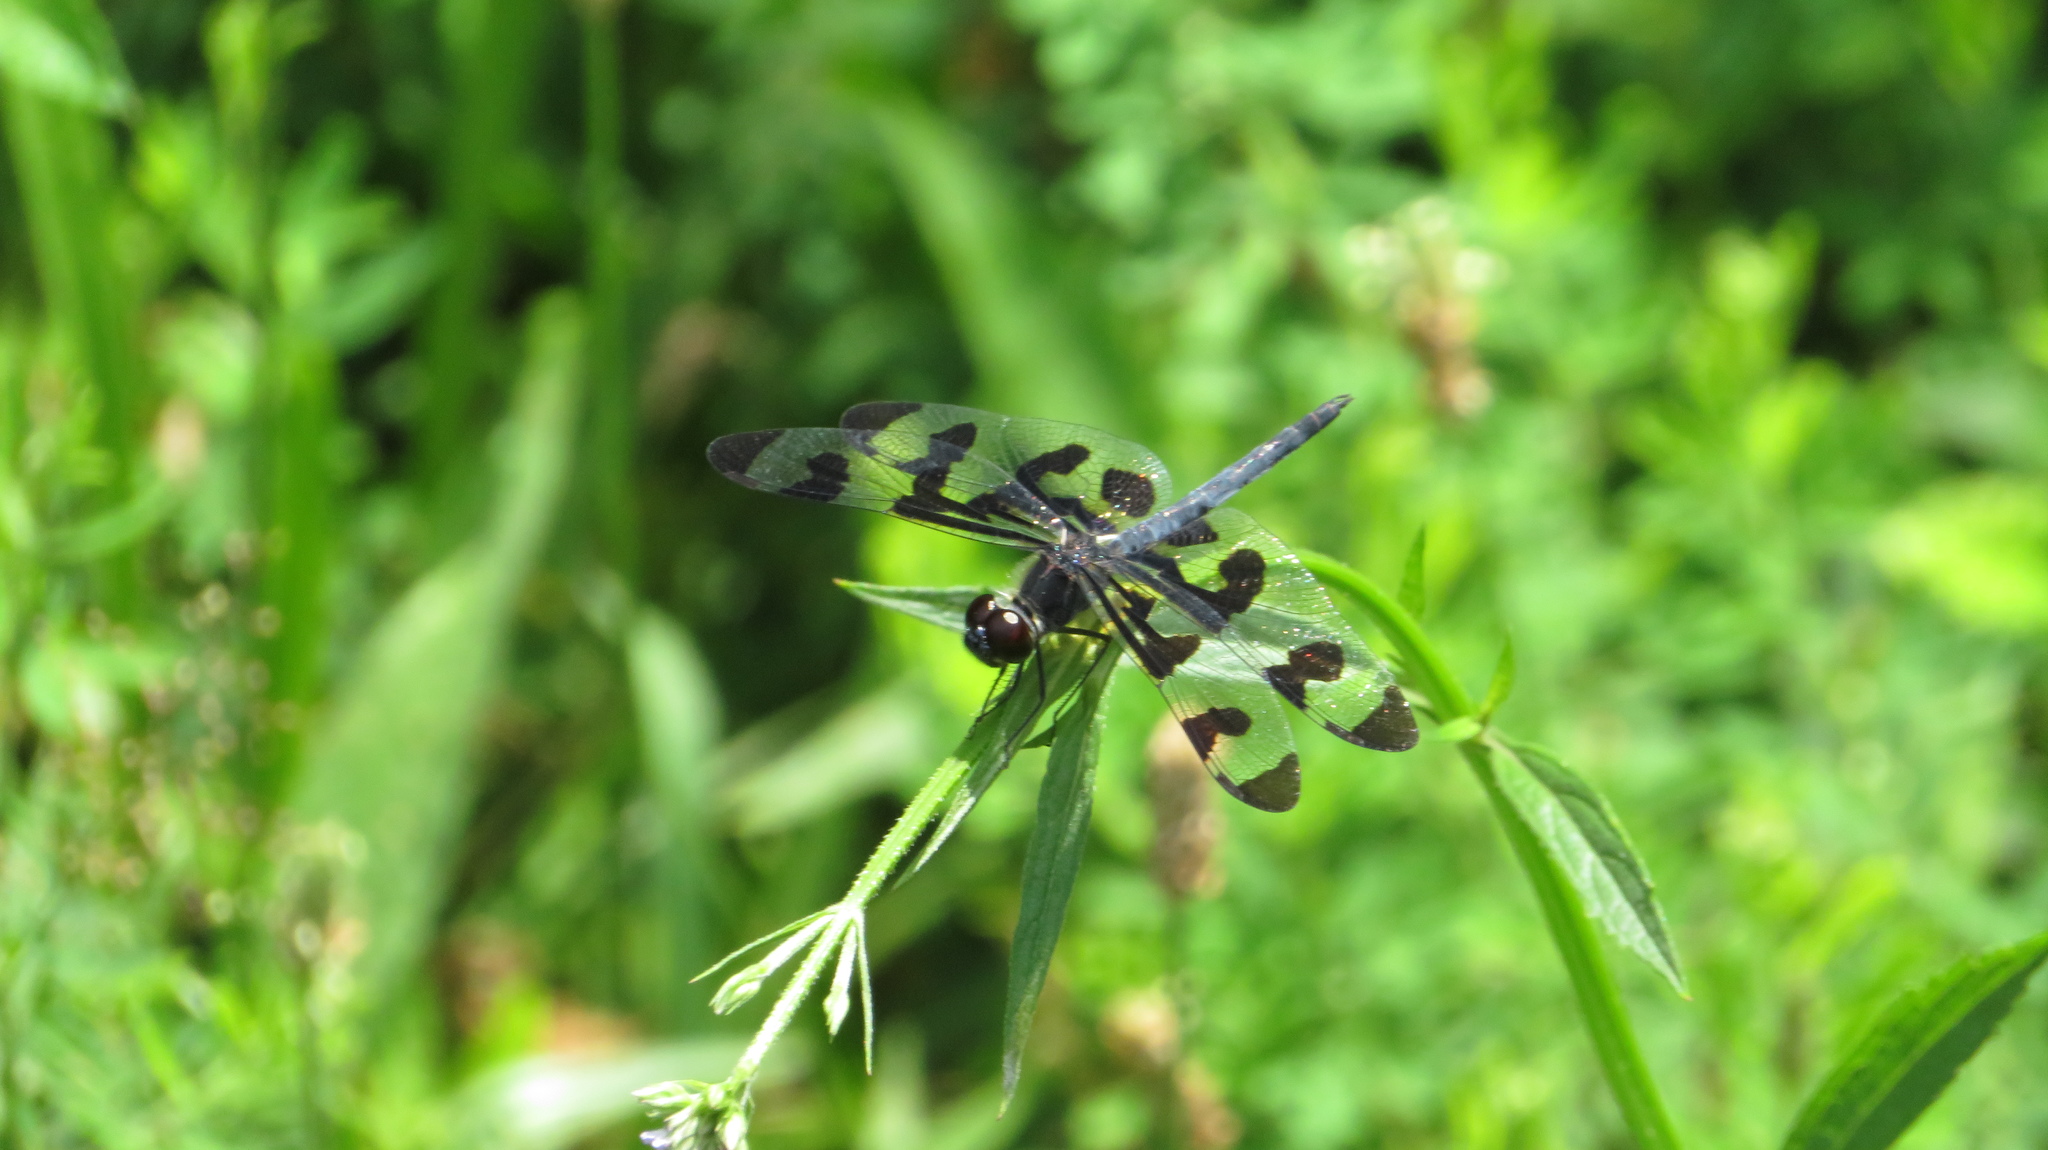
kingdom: Animalia
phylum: Arthropoda
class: Insecta
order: Odonata
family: Libellulidae
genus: Celithemis
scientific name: Celithemis fasciata
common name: Banded pennant
